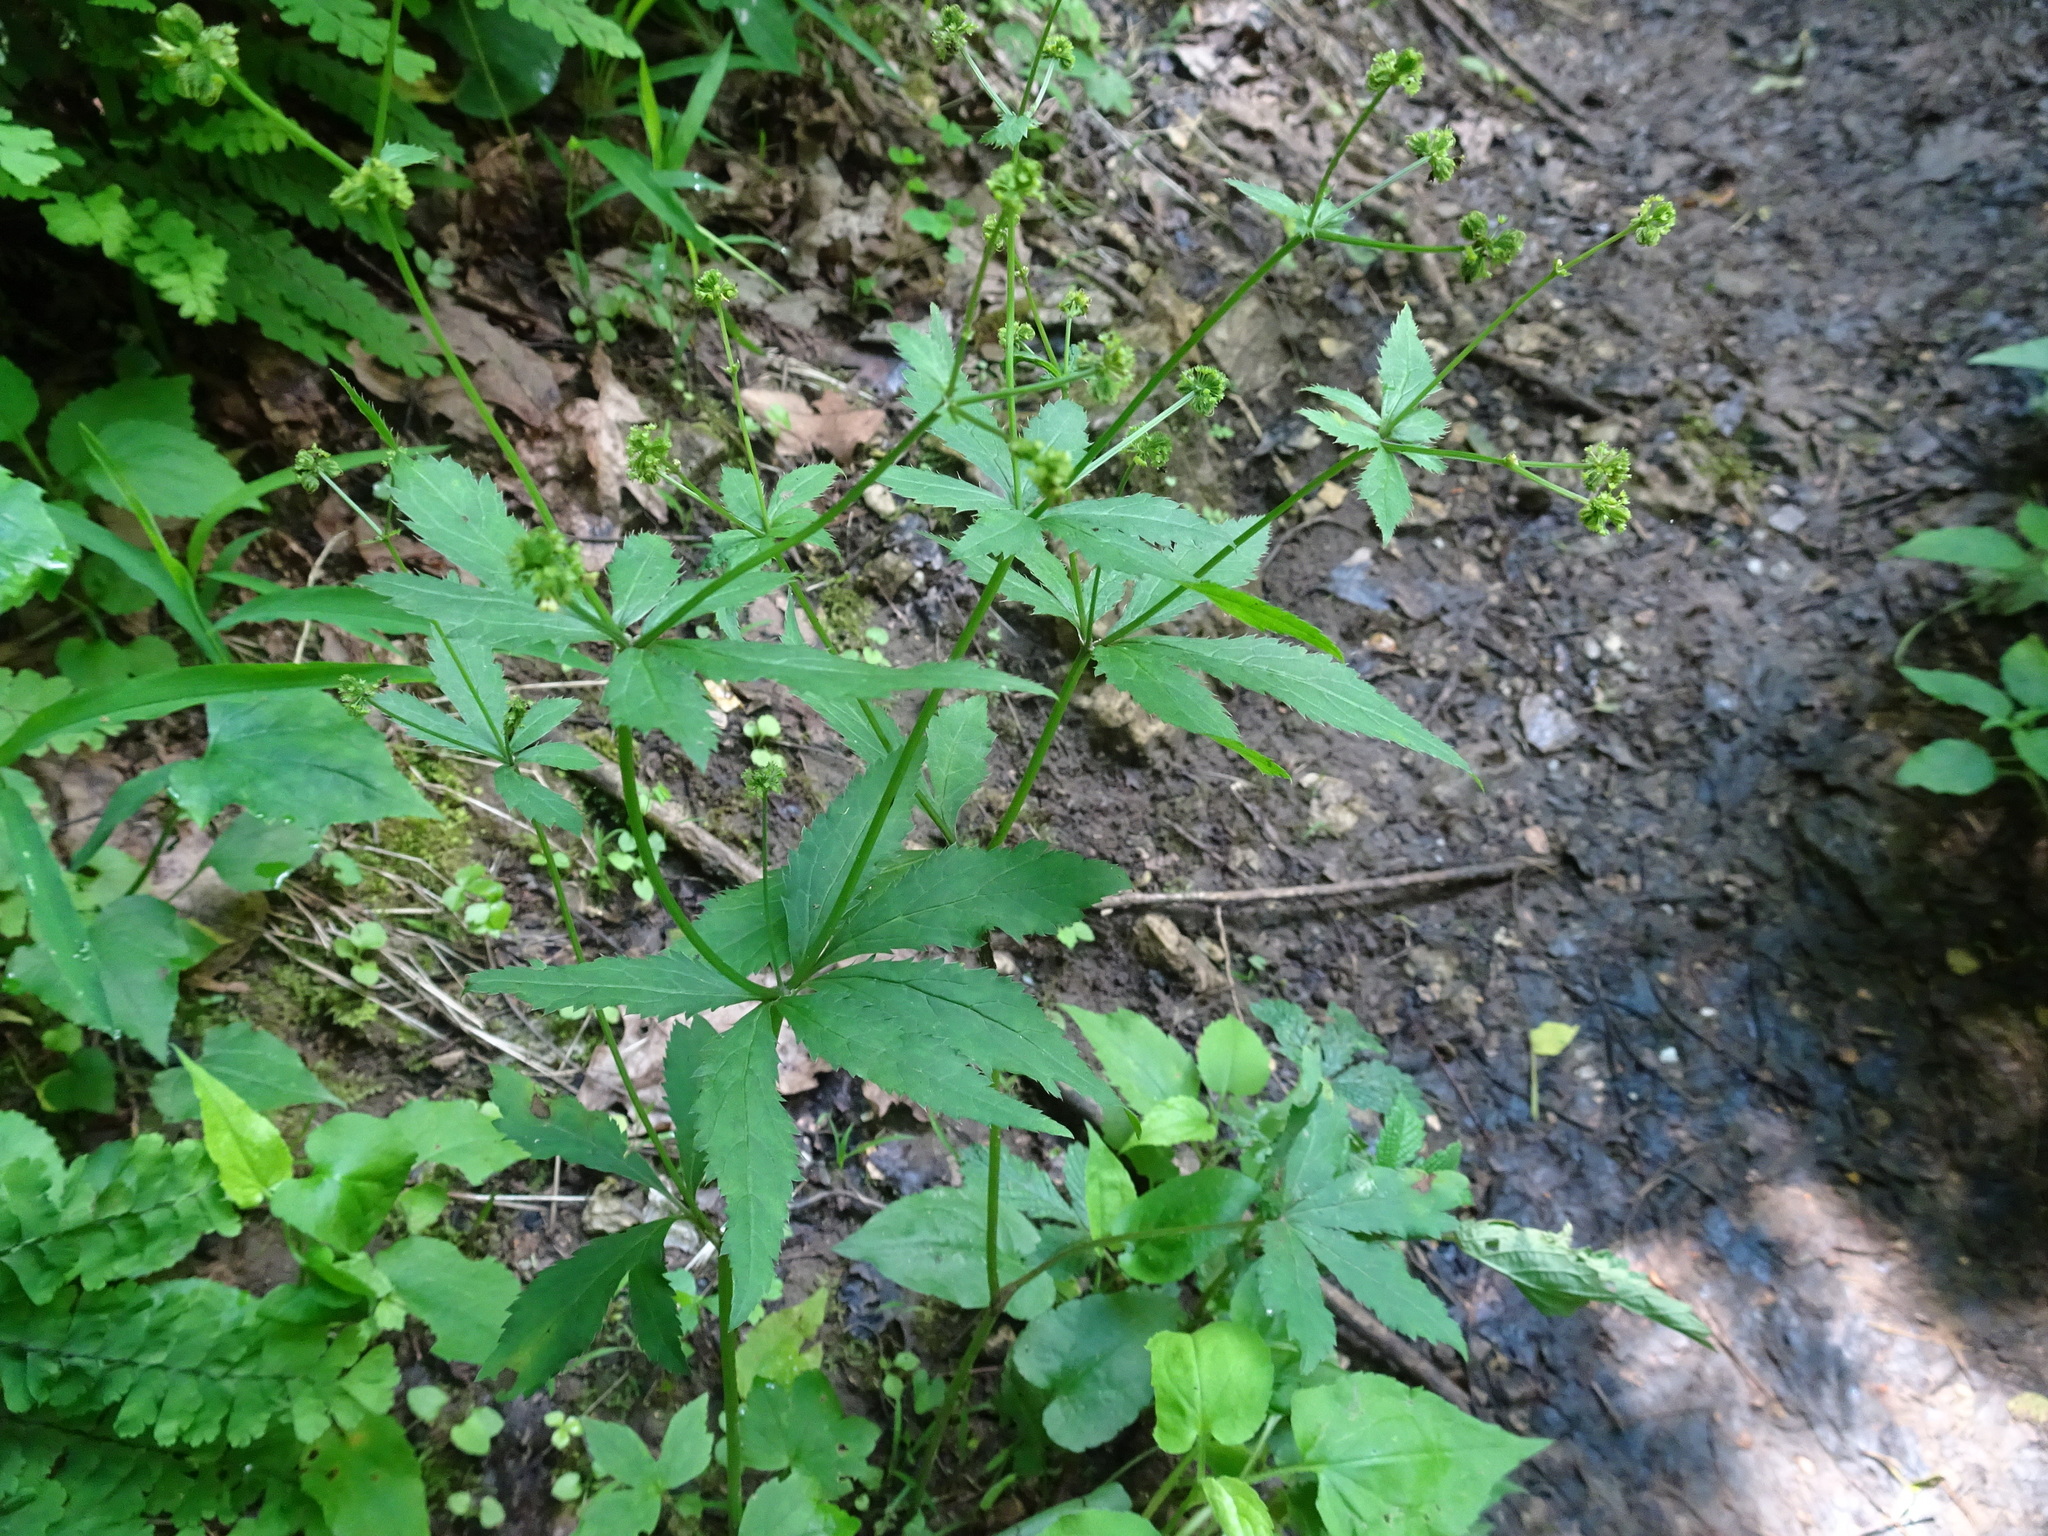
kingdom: Plantae
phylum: Tracheophyta
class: Magnoliopsida
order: Apiales
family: Apiaceae
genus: Sanicula
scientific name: Sanicula odorata
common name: Cluster sanicle
